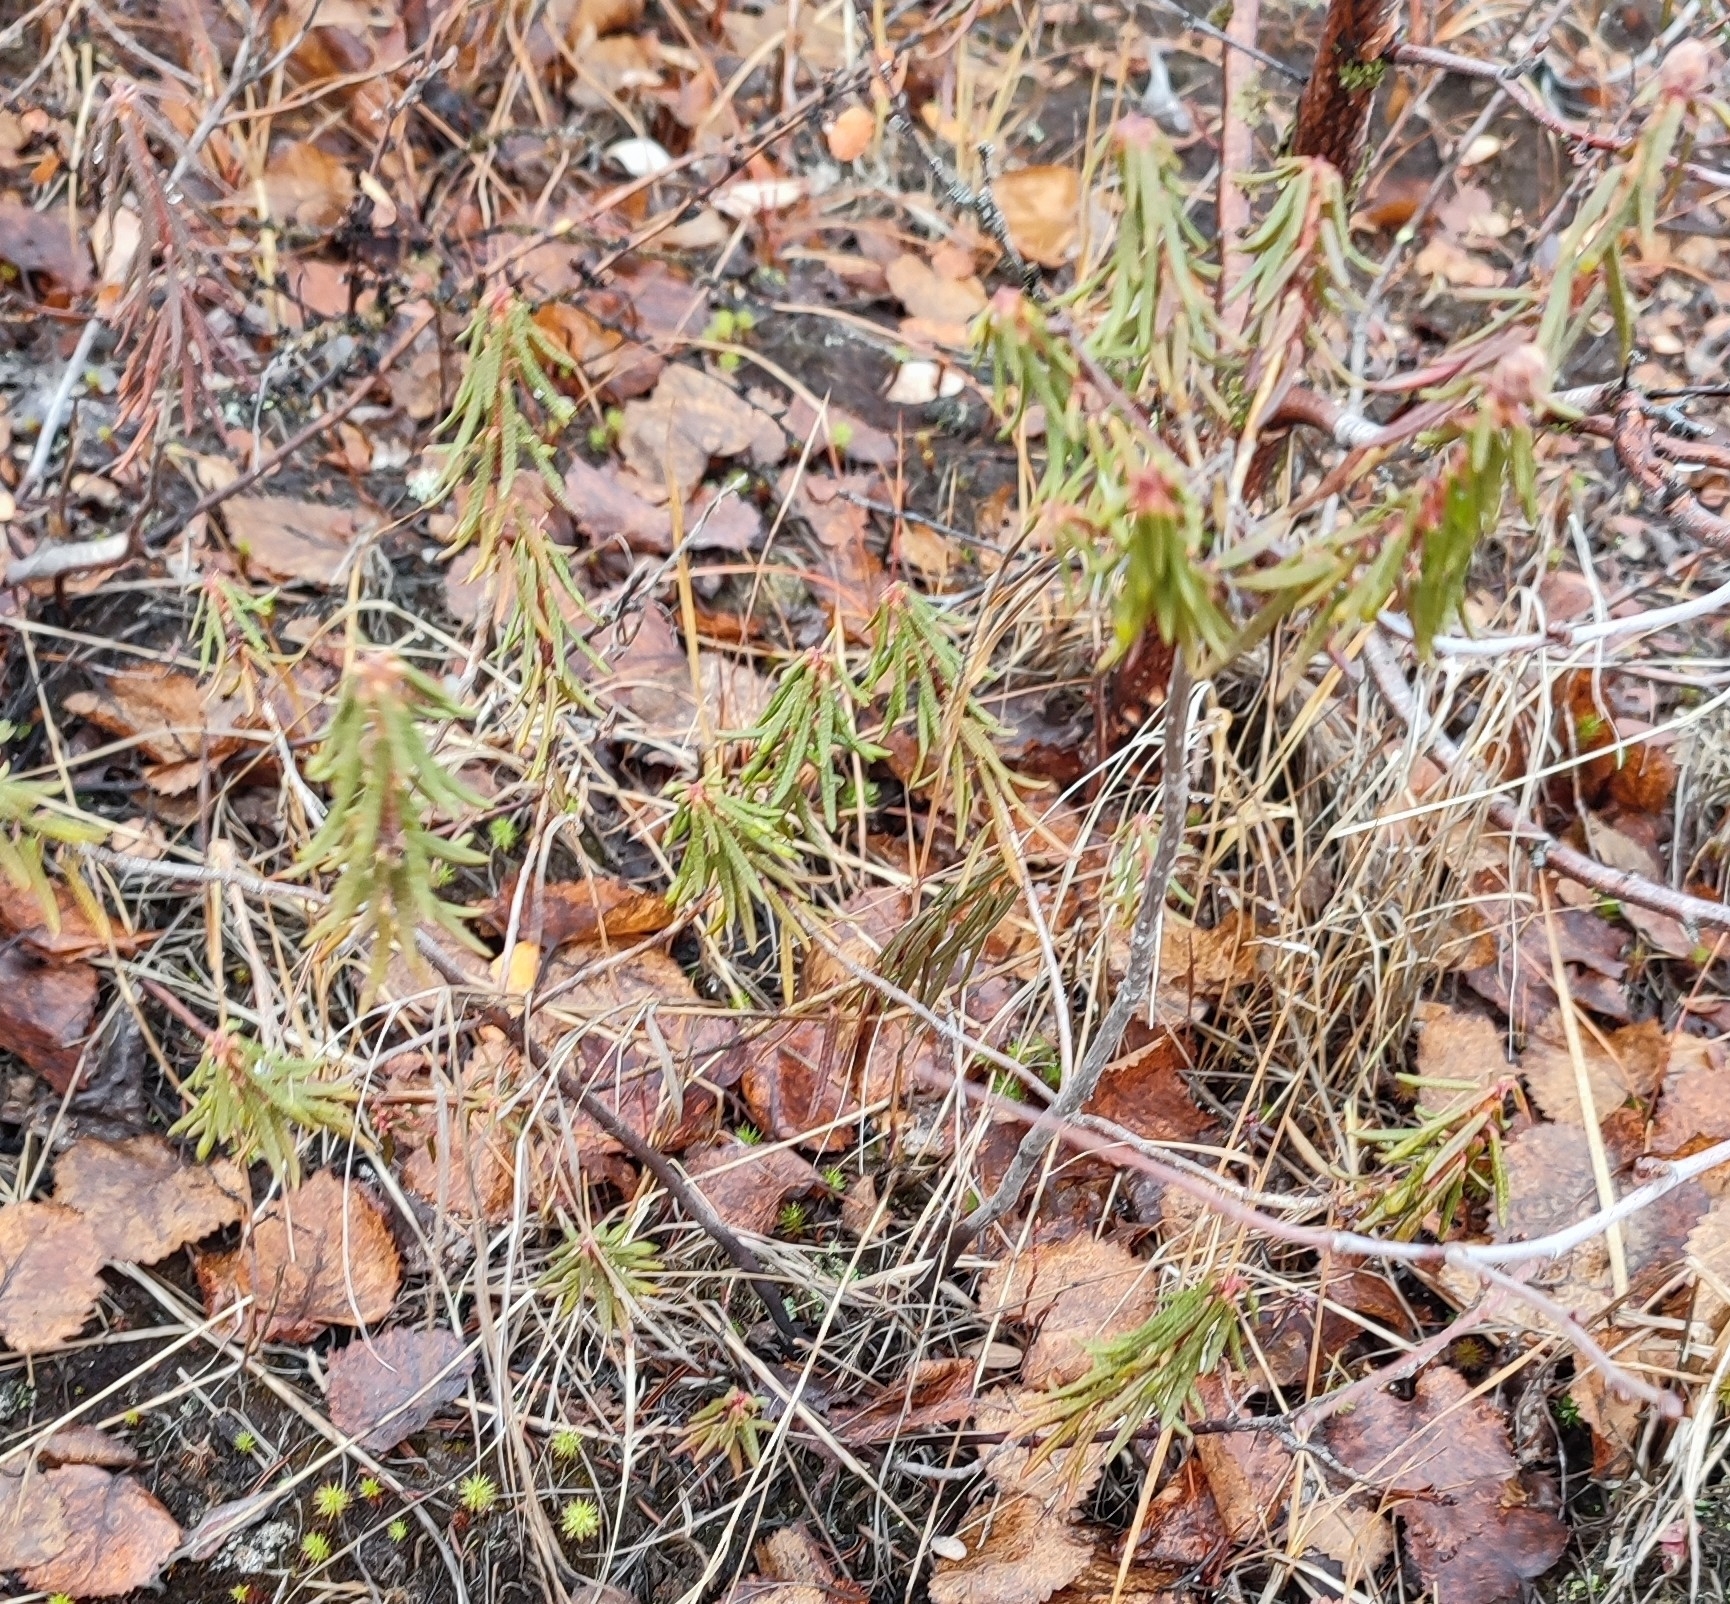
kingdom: Plantae
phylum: Tracheophyta
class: Magnoliopsida
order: Ericales
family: Ericaceae
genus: Rhododendron
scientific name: Rhododendron tomentosum
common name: Marsh labrador tea
